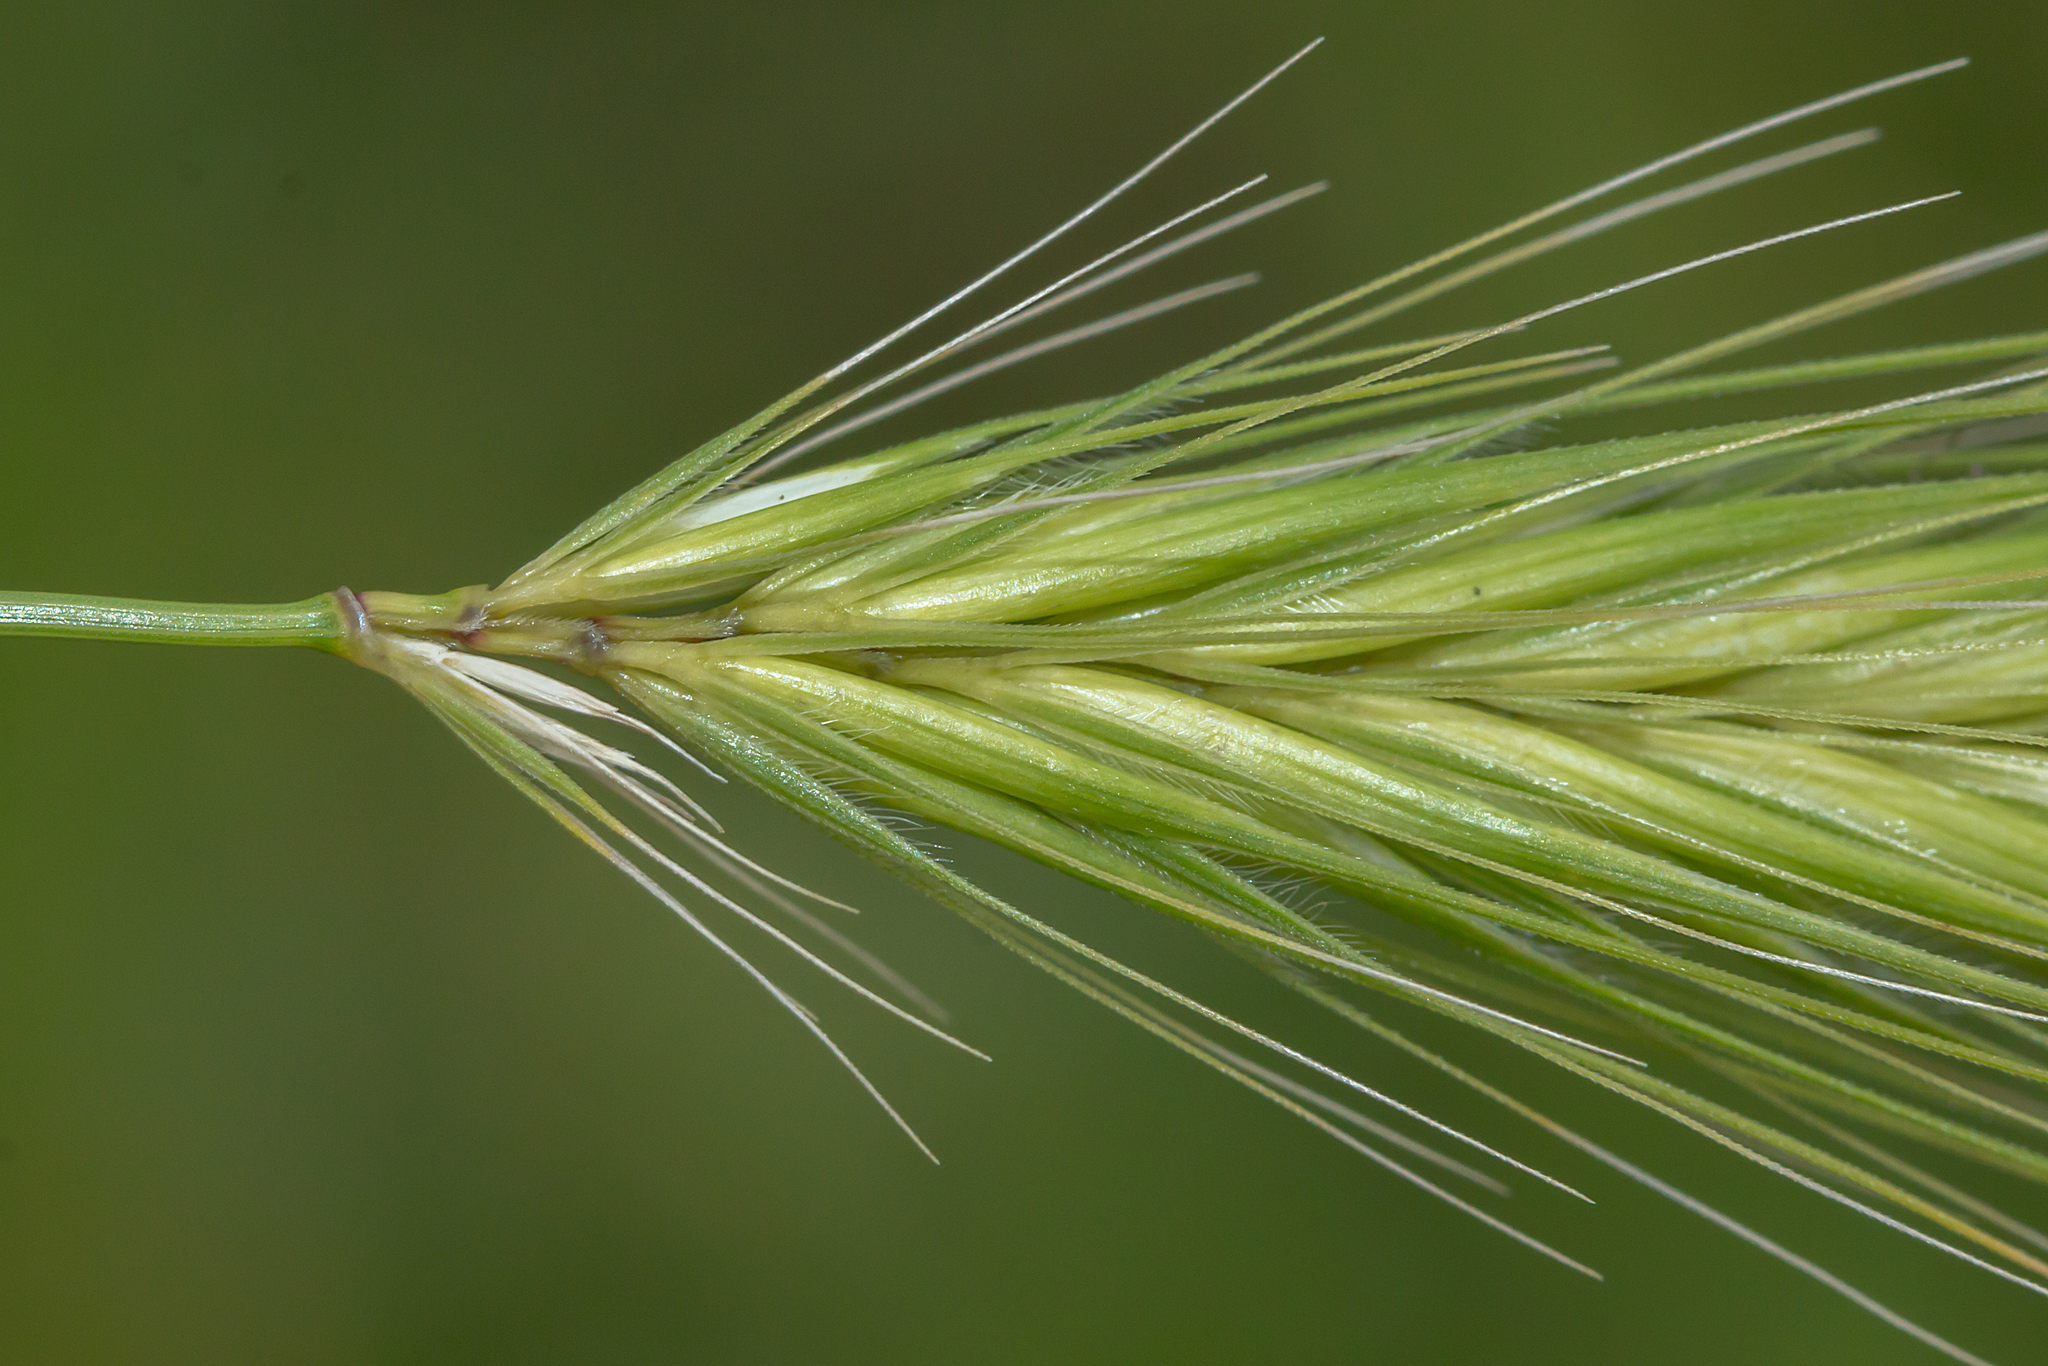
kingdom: Plantae
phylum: Tracheophyta
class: Liliopsida
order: Poales
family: Poaceae
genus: Hordeum
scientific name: Hordeum murinum
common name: Wall barley
